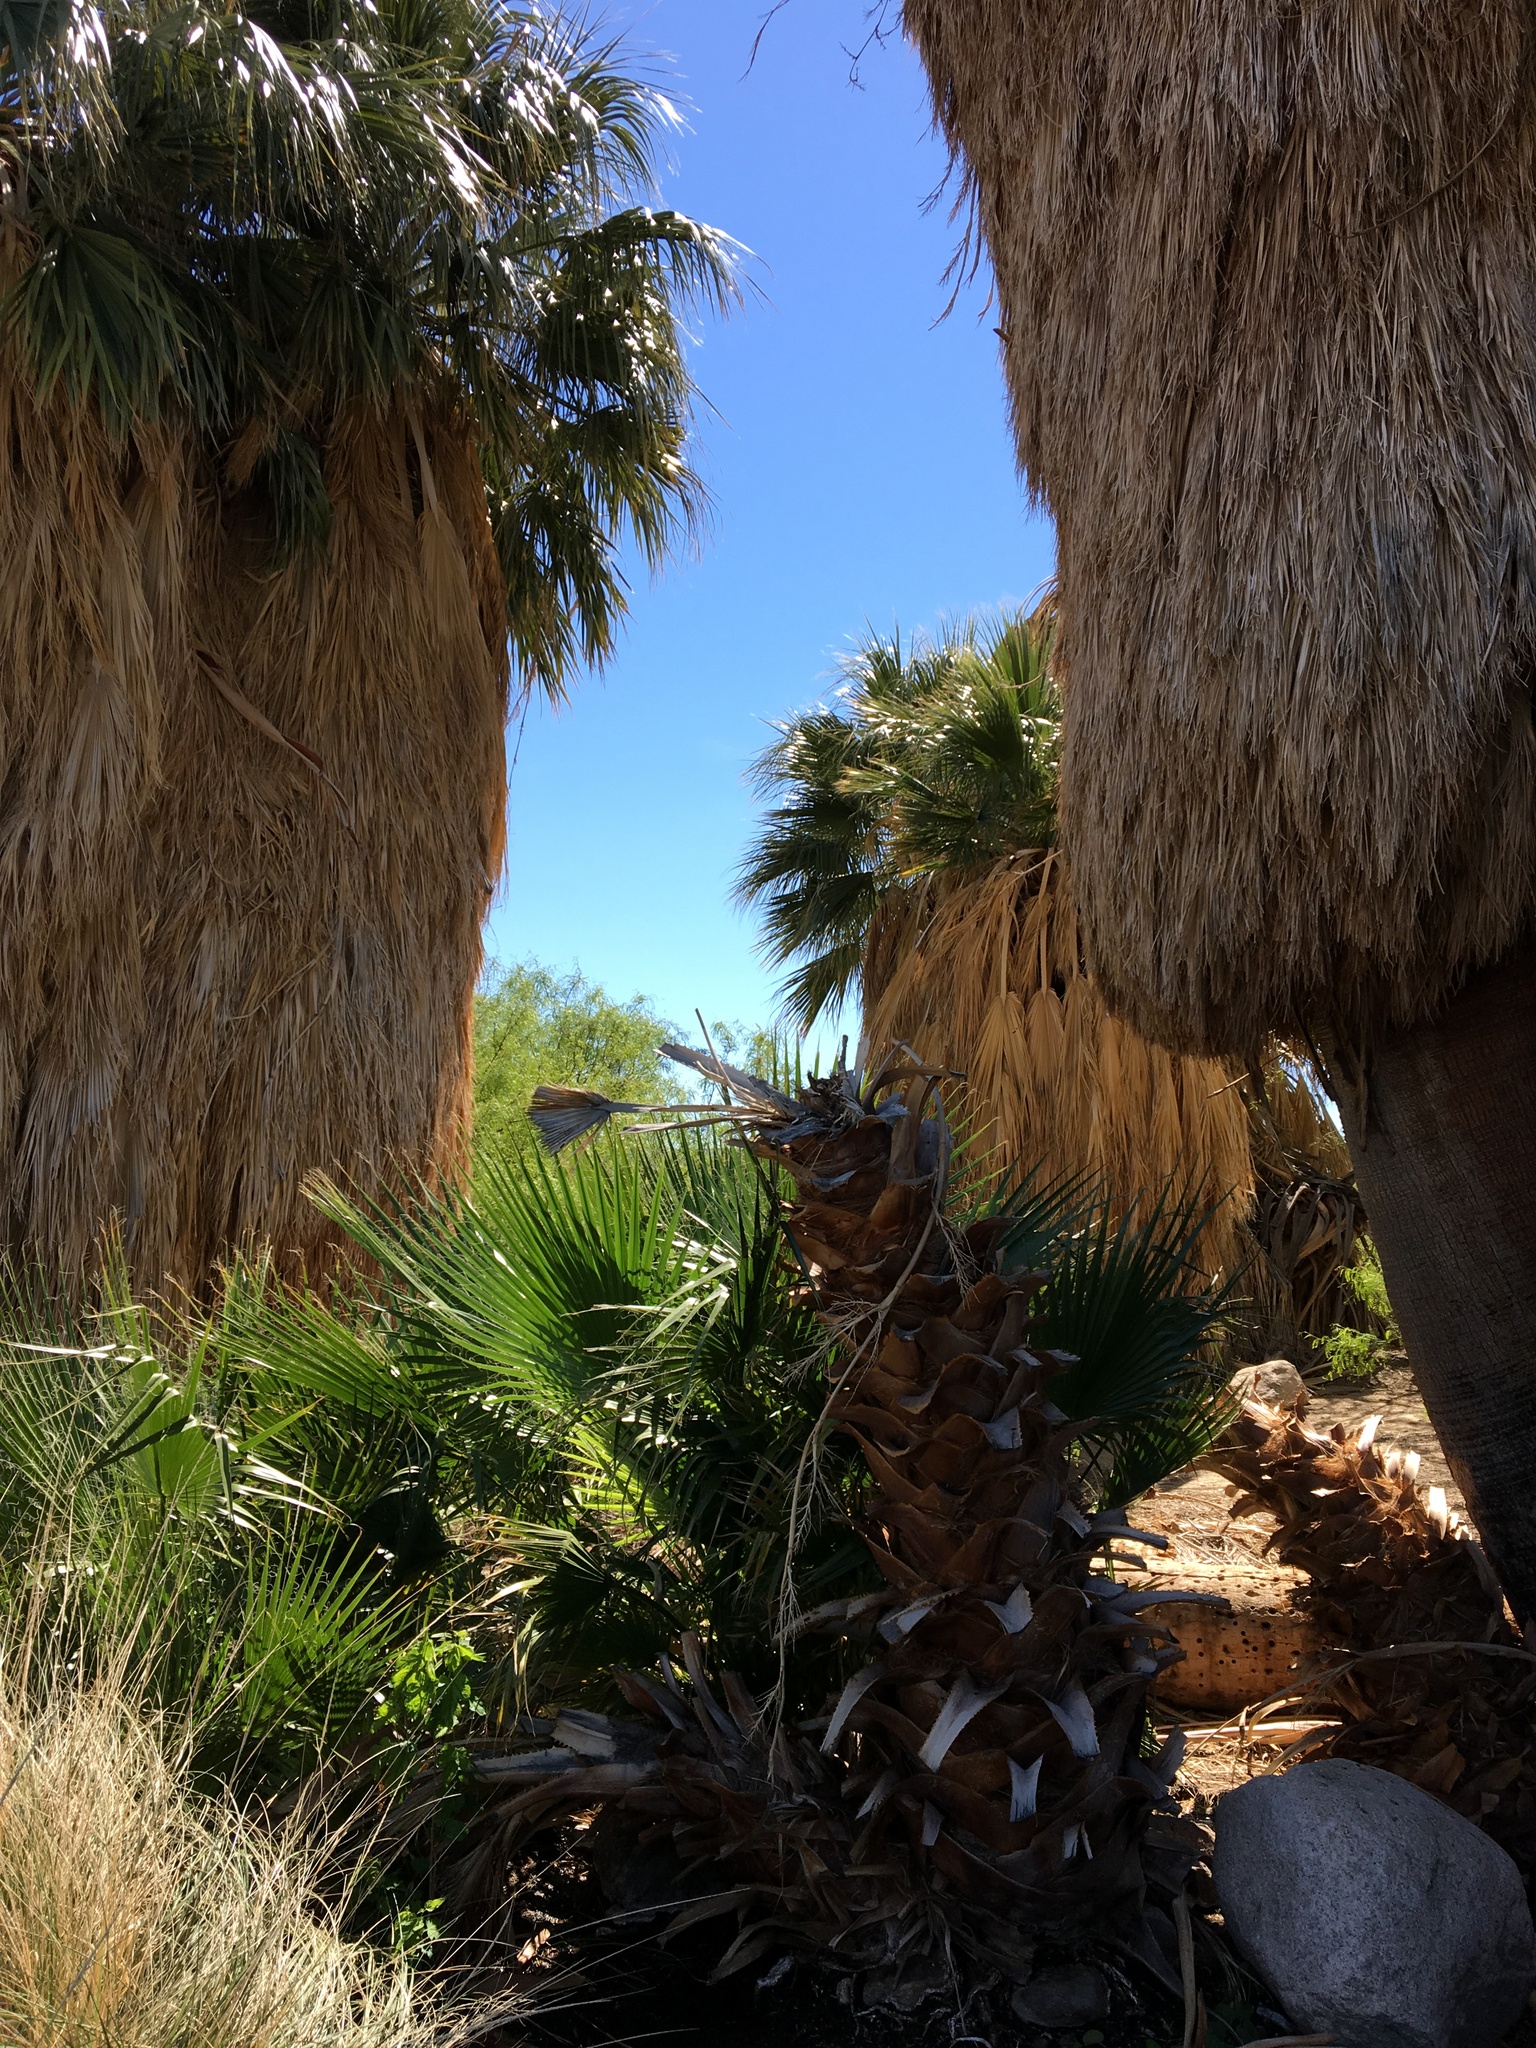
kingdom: Plantae
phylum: Tracheophyta
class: Liliopsida
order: Arecales
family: Arecaceae
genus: Washingtonia
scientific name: Washingtonia filifera
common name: California fan palm
